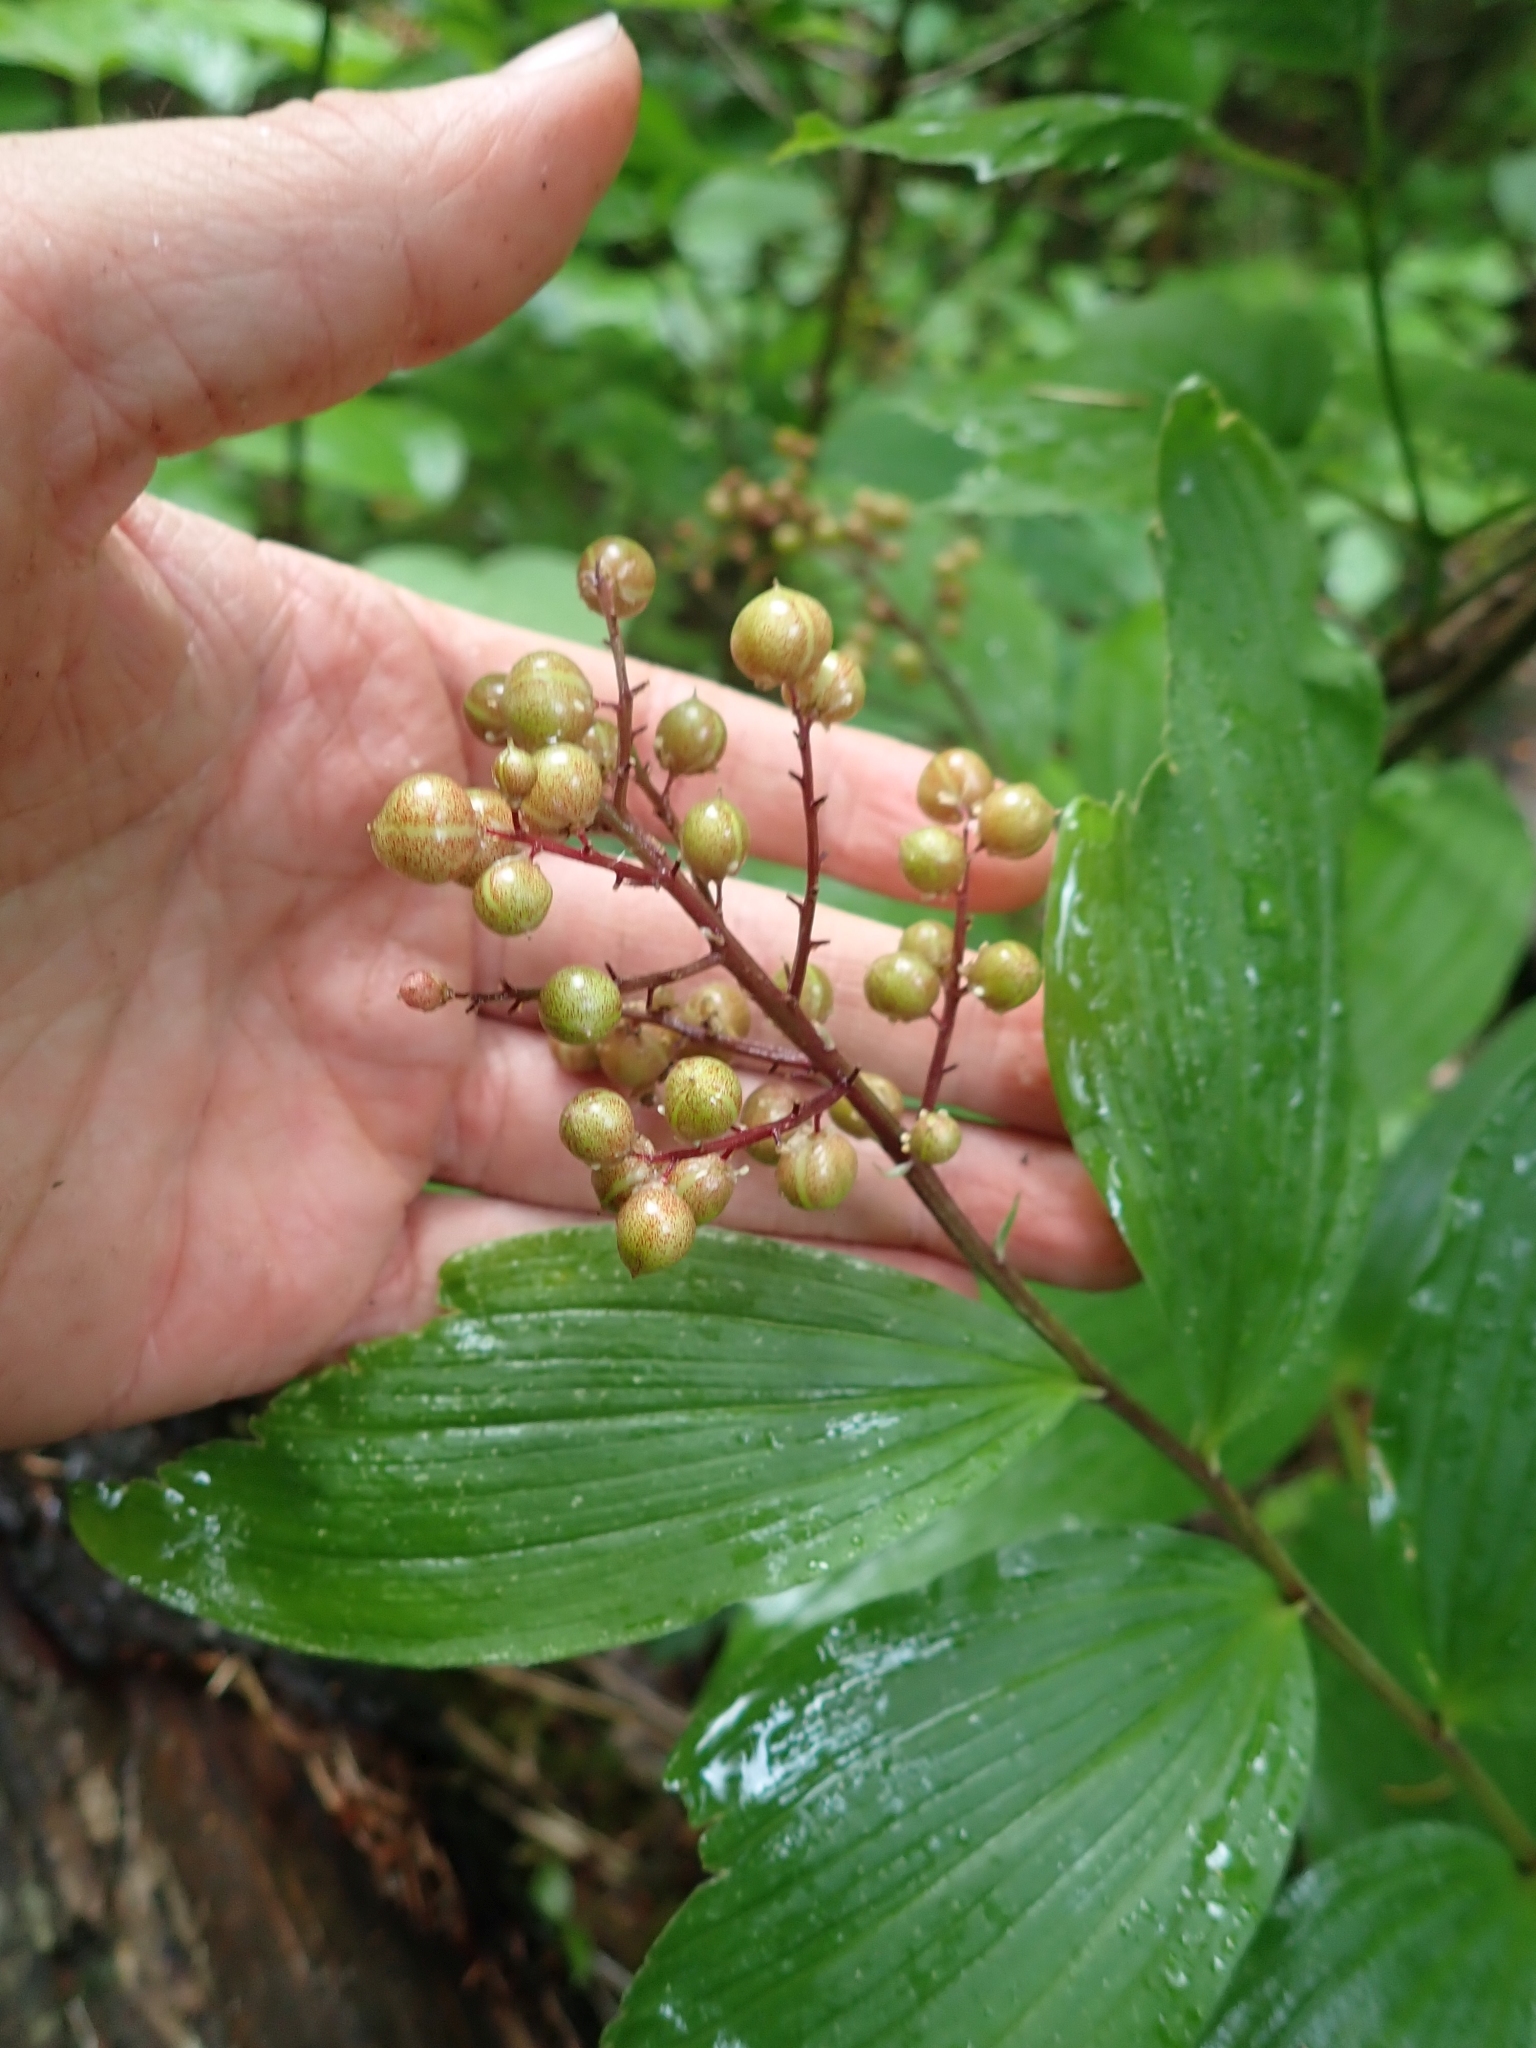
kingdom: Plantae
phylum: Tracheophyta
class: Liliopsida
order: Asparagales
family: Asparagaceae
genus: Maianthemum
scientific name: Maianthemum racemosum
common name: False spikenard
